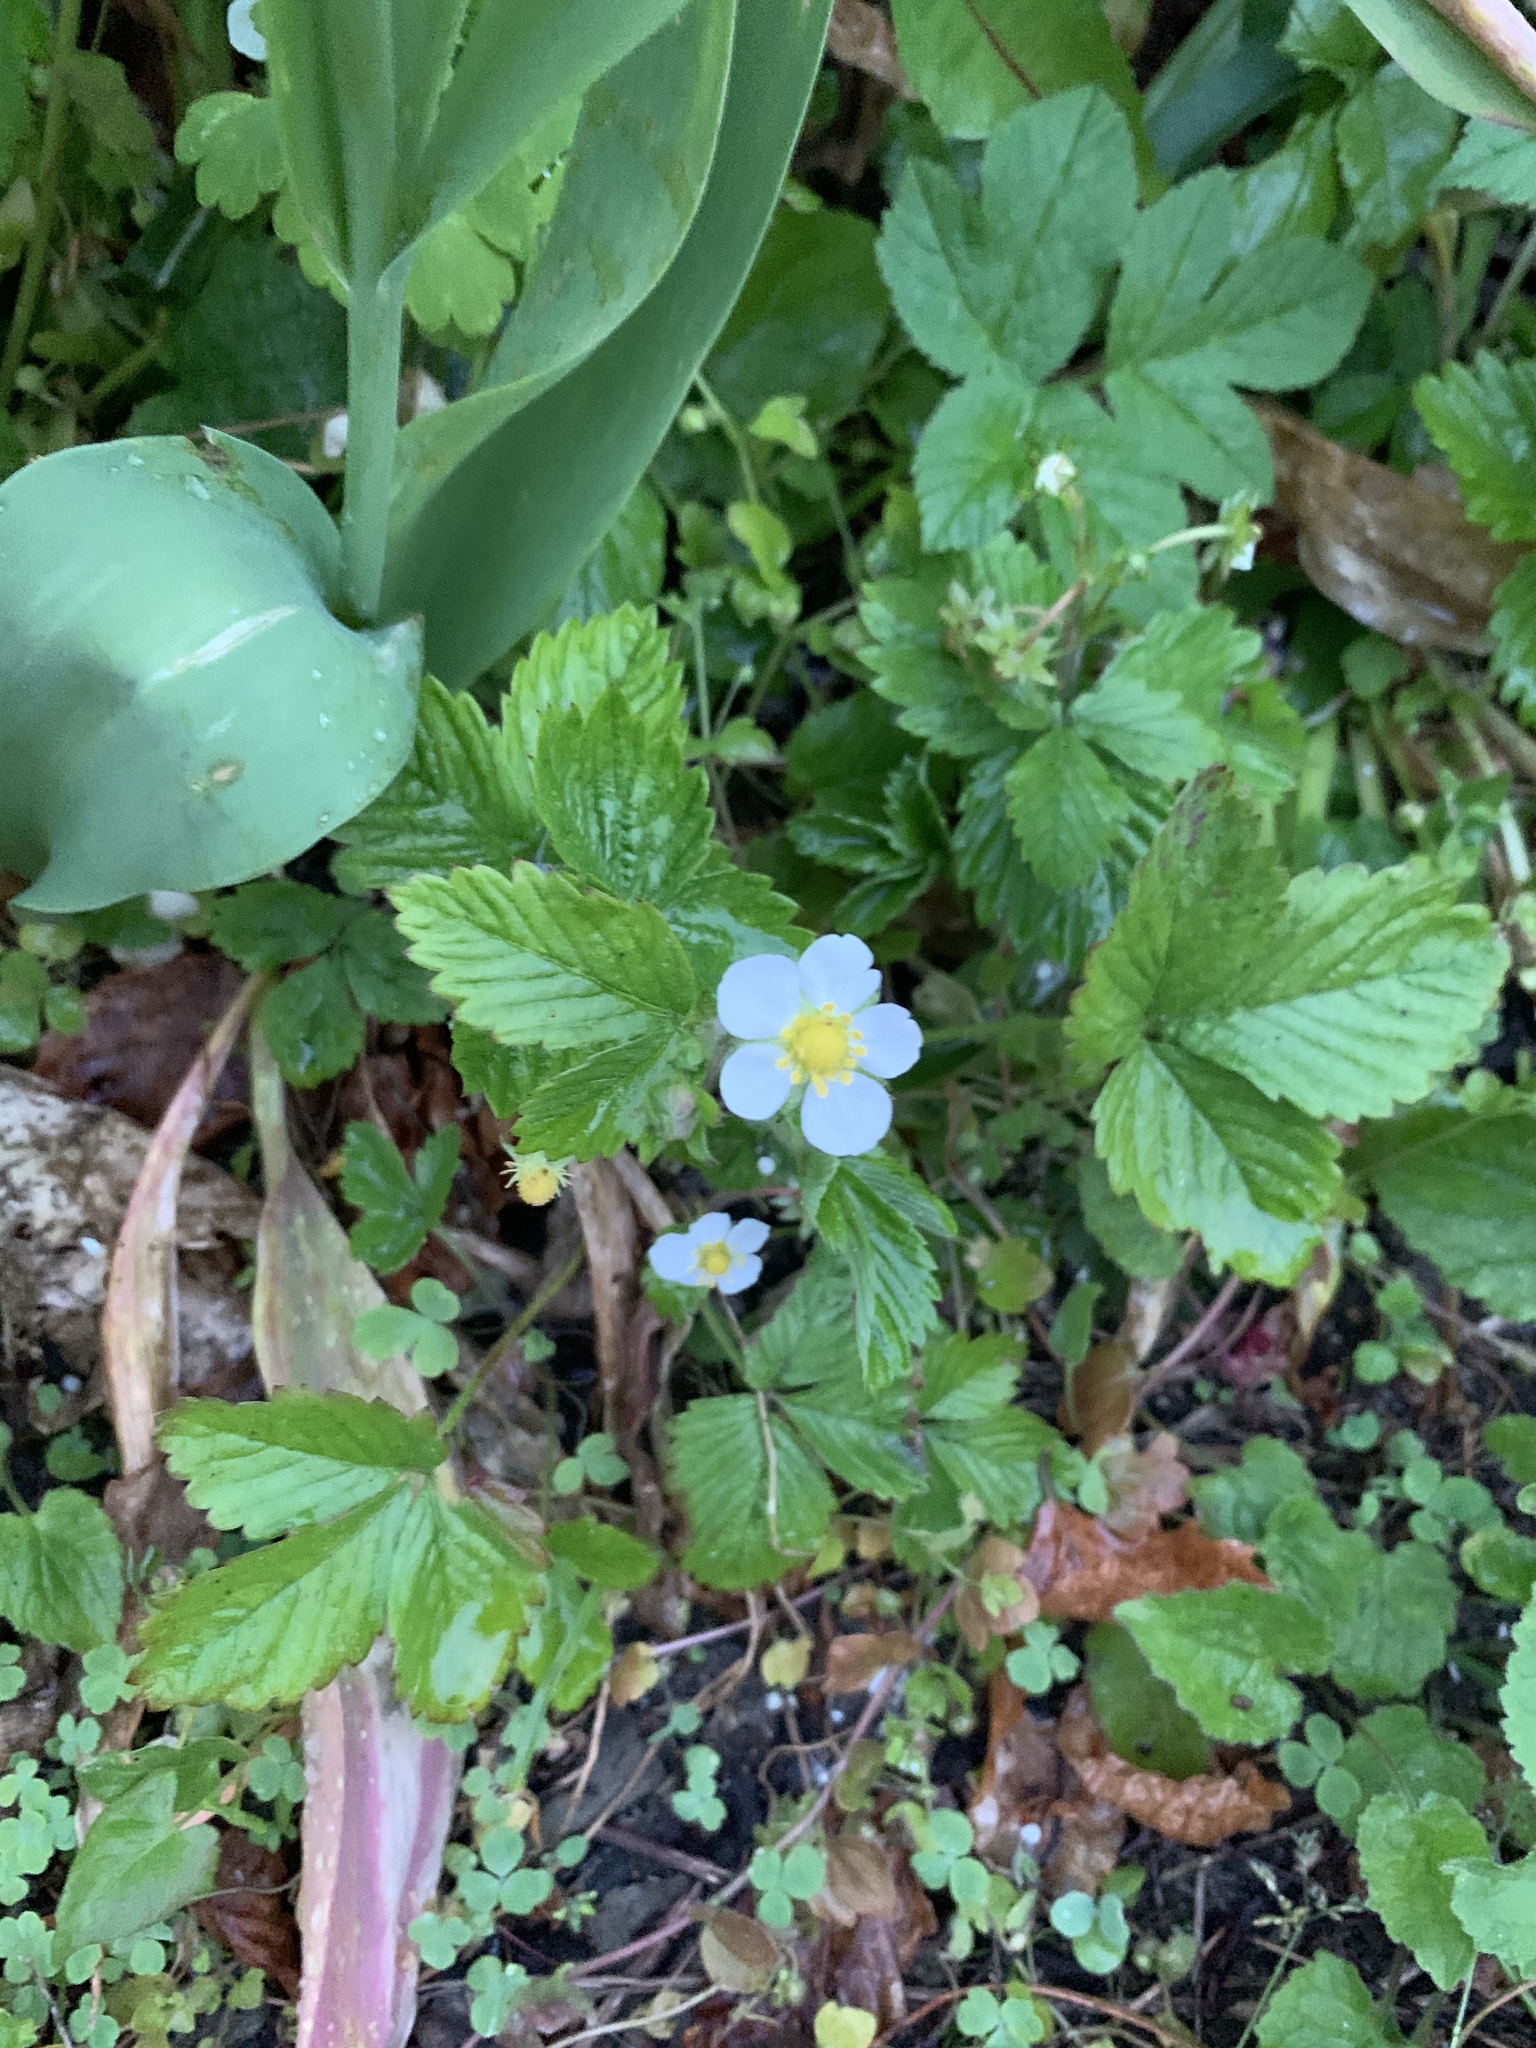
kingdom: Plantae
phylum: Tracheophyta
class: Magnoliopsida
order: Rosales
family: Rosaceae
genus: Fragaria
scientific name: Fragaria vesca
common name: Wild strawberry
